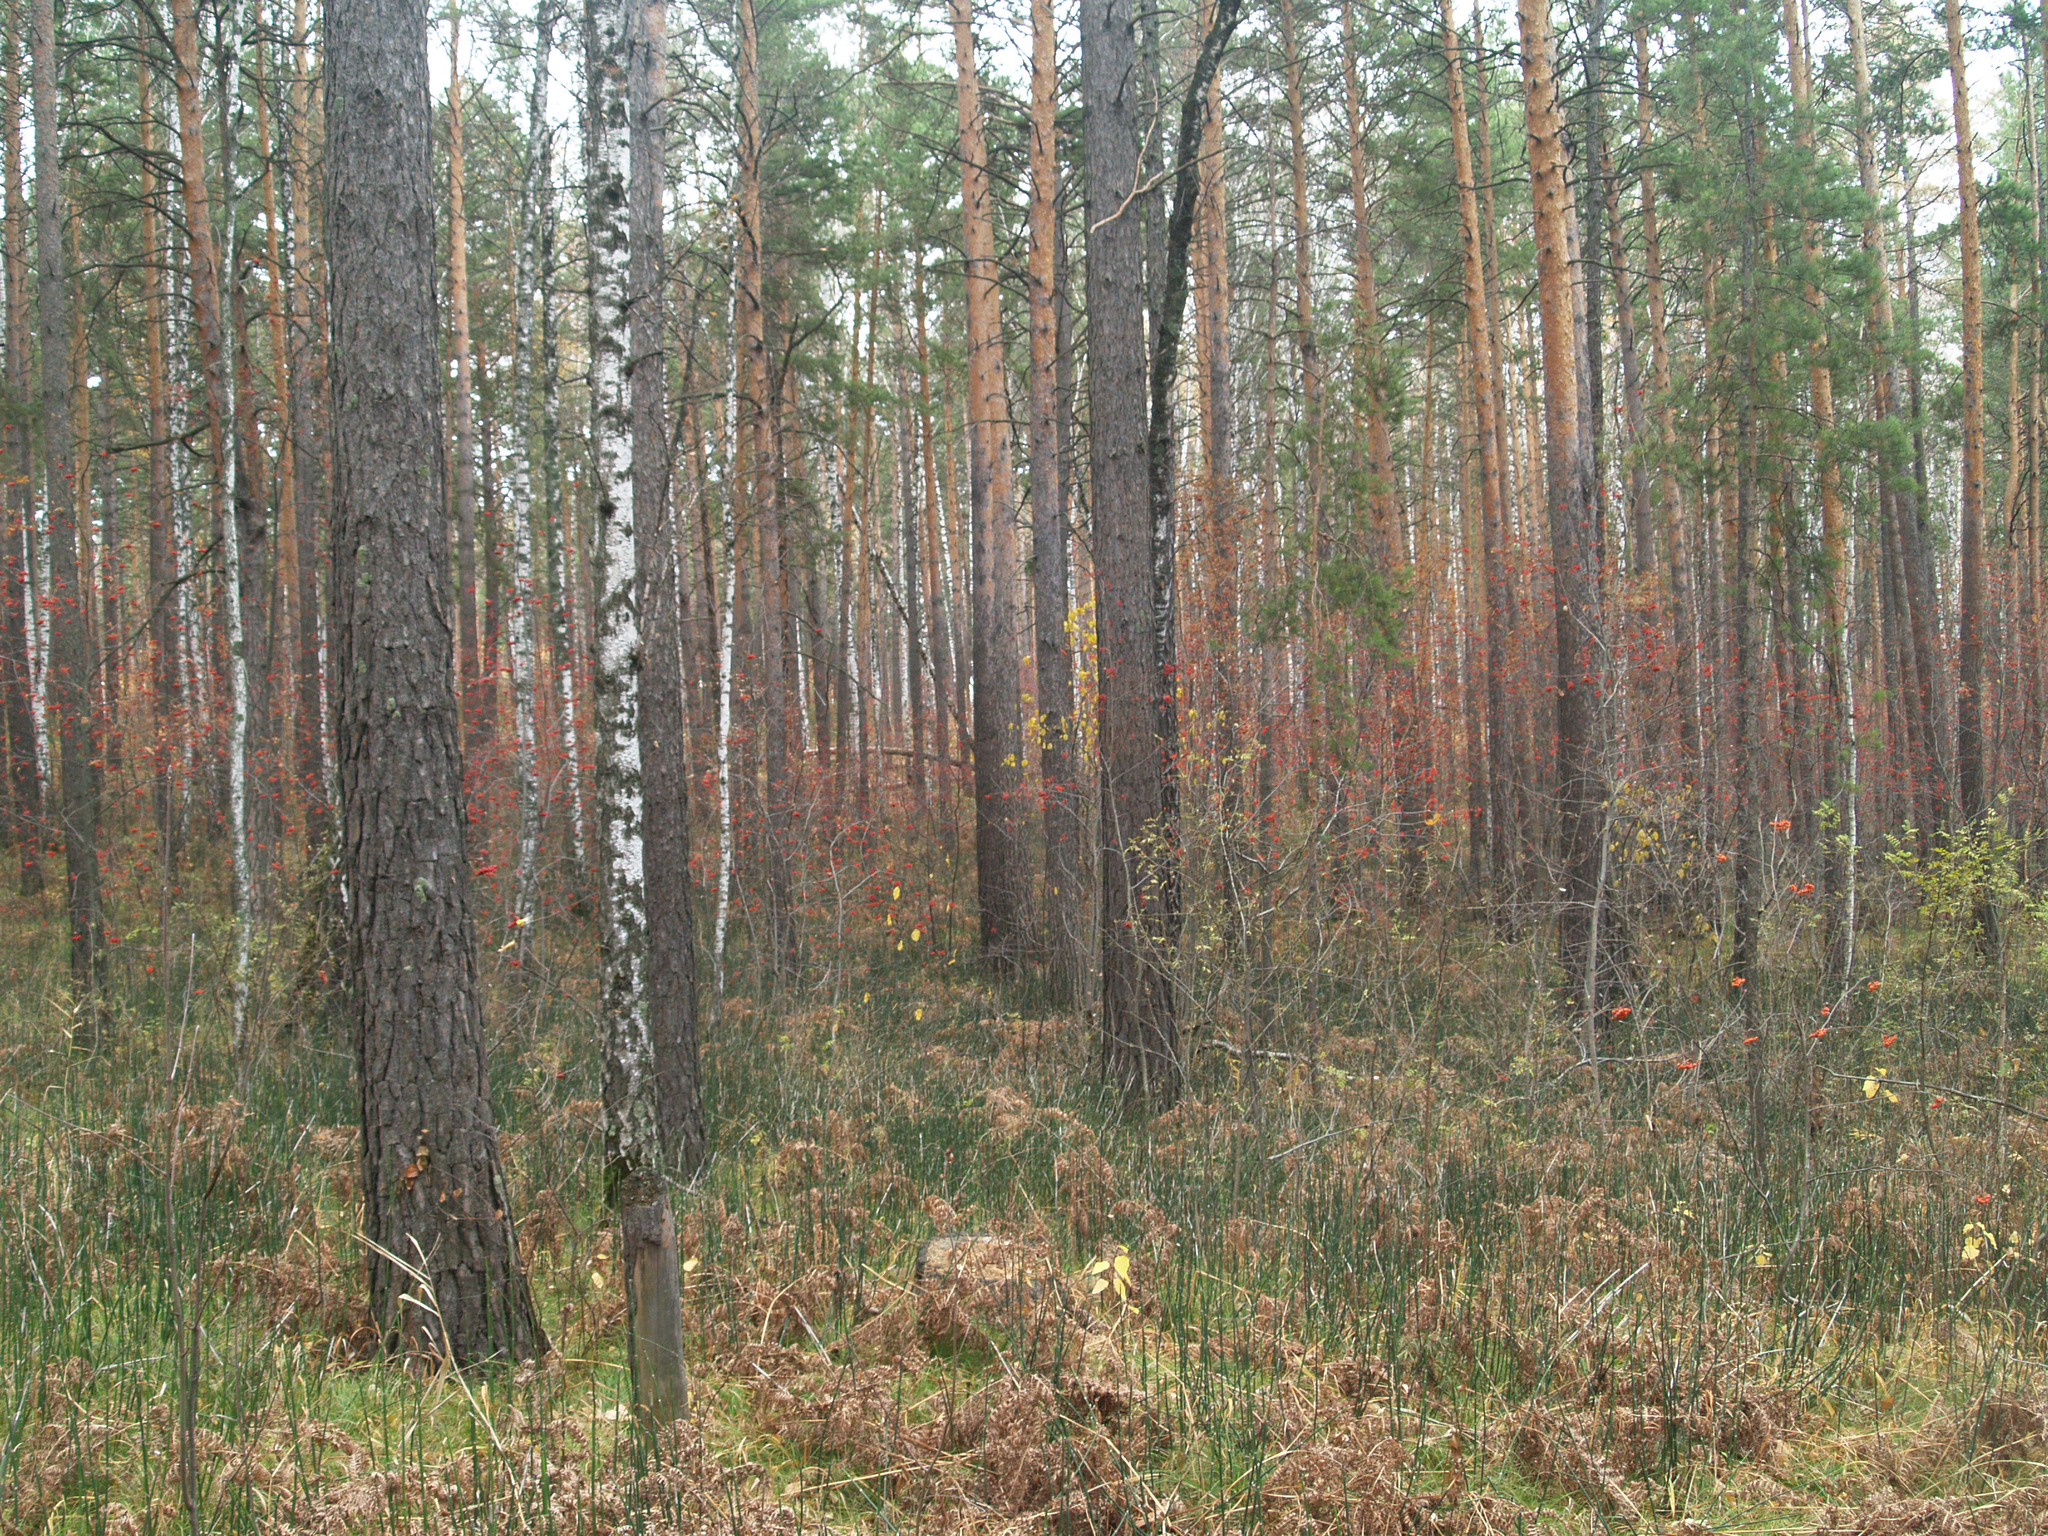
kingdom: Plantae
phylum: Tracheophyta
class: Magnoliopsida
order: Rosales
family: Rosaceae
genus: Sorbus
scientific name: Sorbus aucuparia
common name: Rowan
